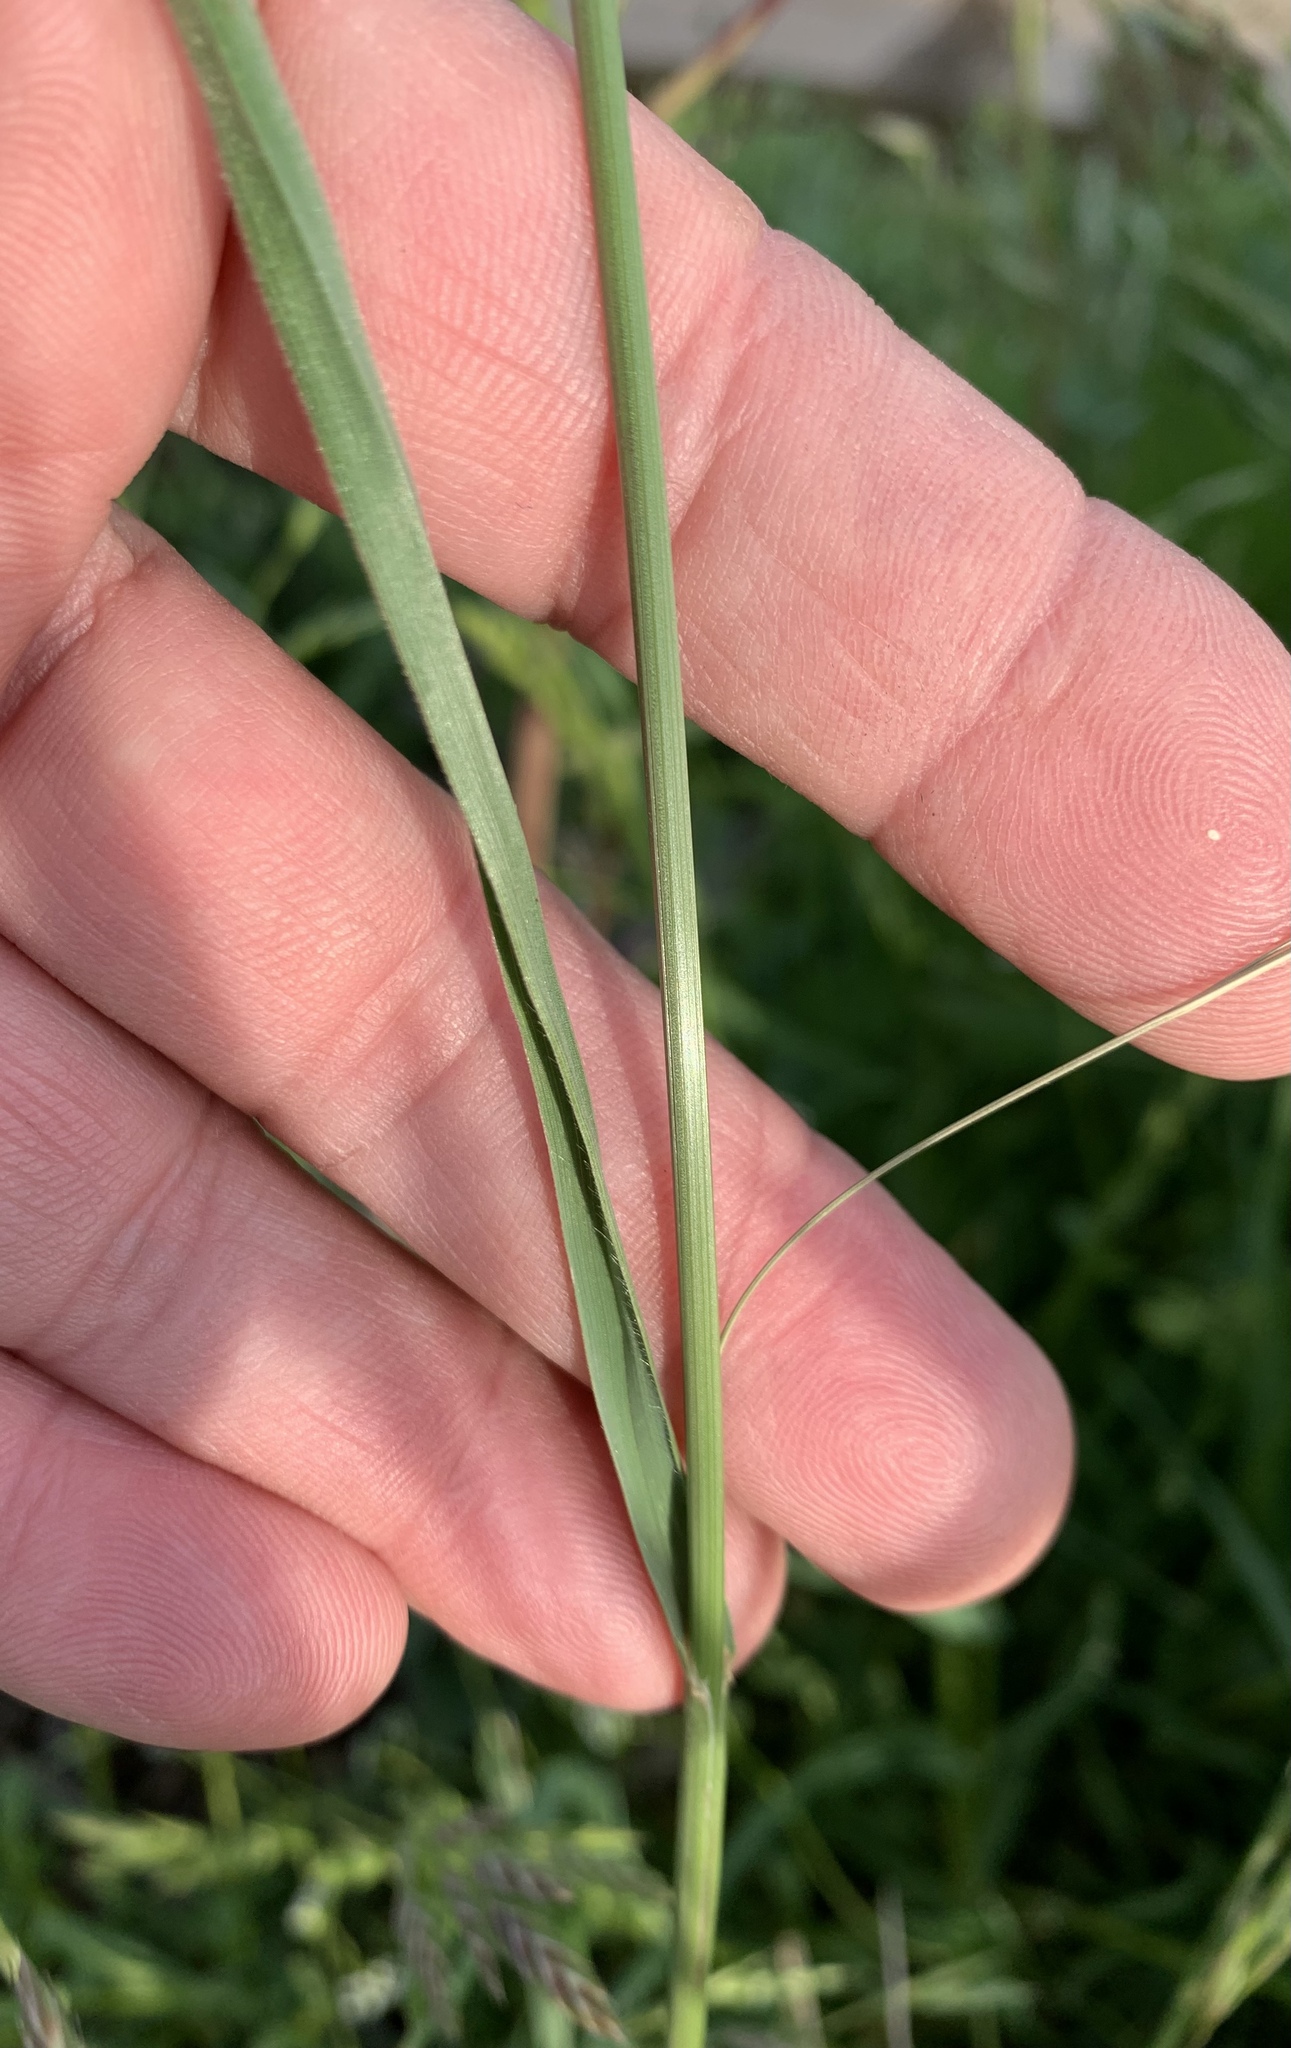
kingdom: Plantae
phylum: Tracheophyta
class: Liliopsida
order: Poales
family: Poaceae
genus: Bromus
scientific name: Bromus catharticus
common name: Rescuegrass
